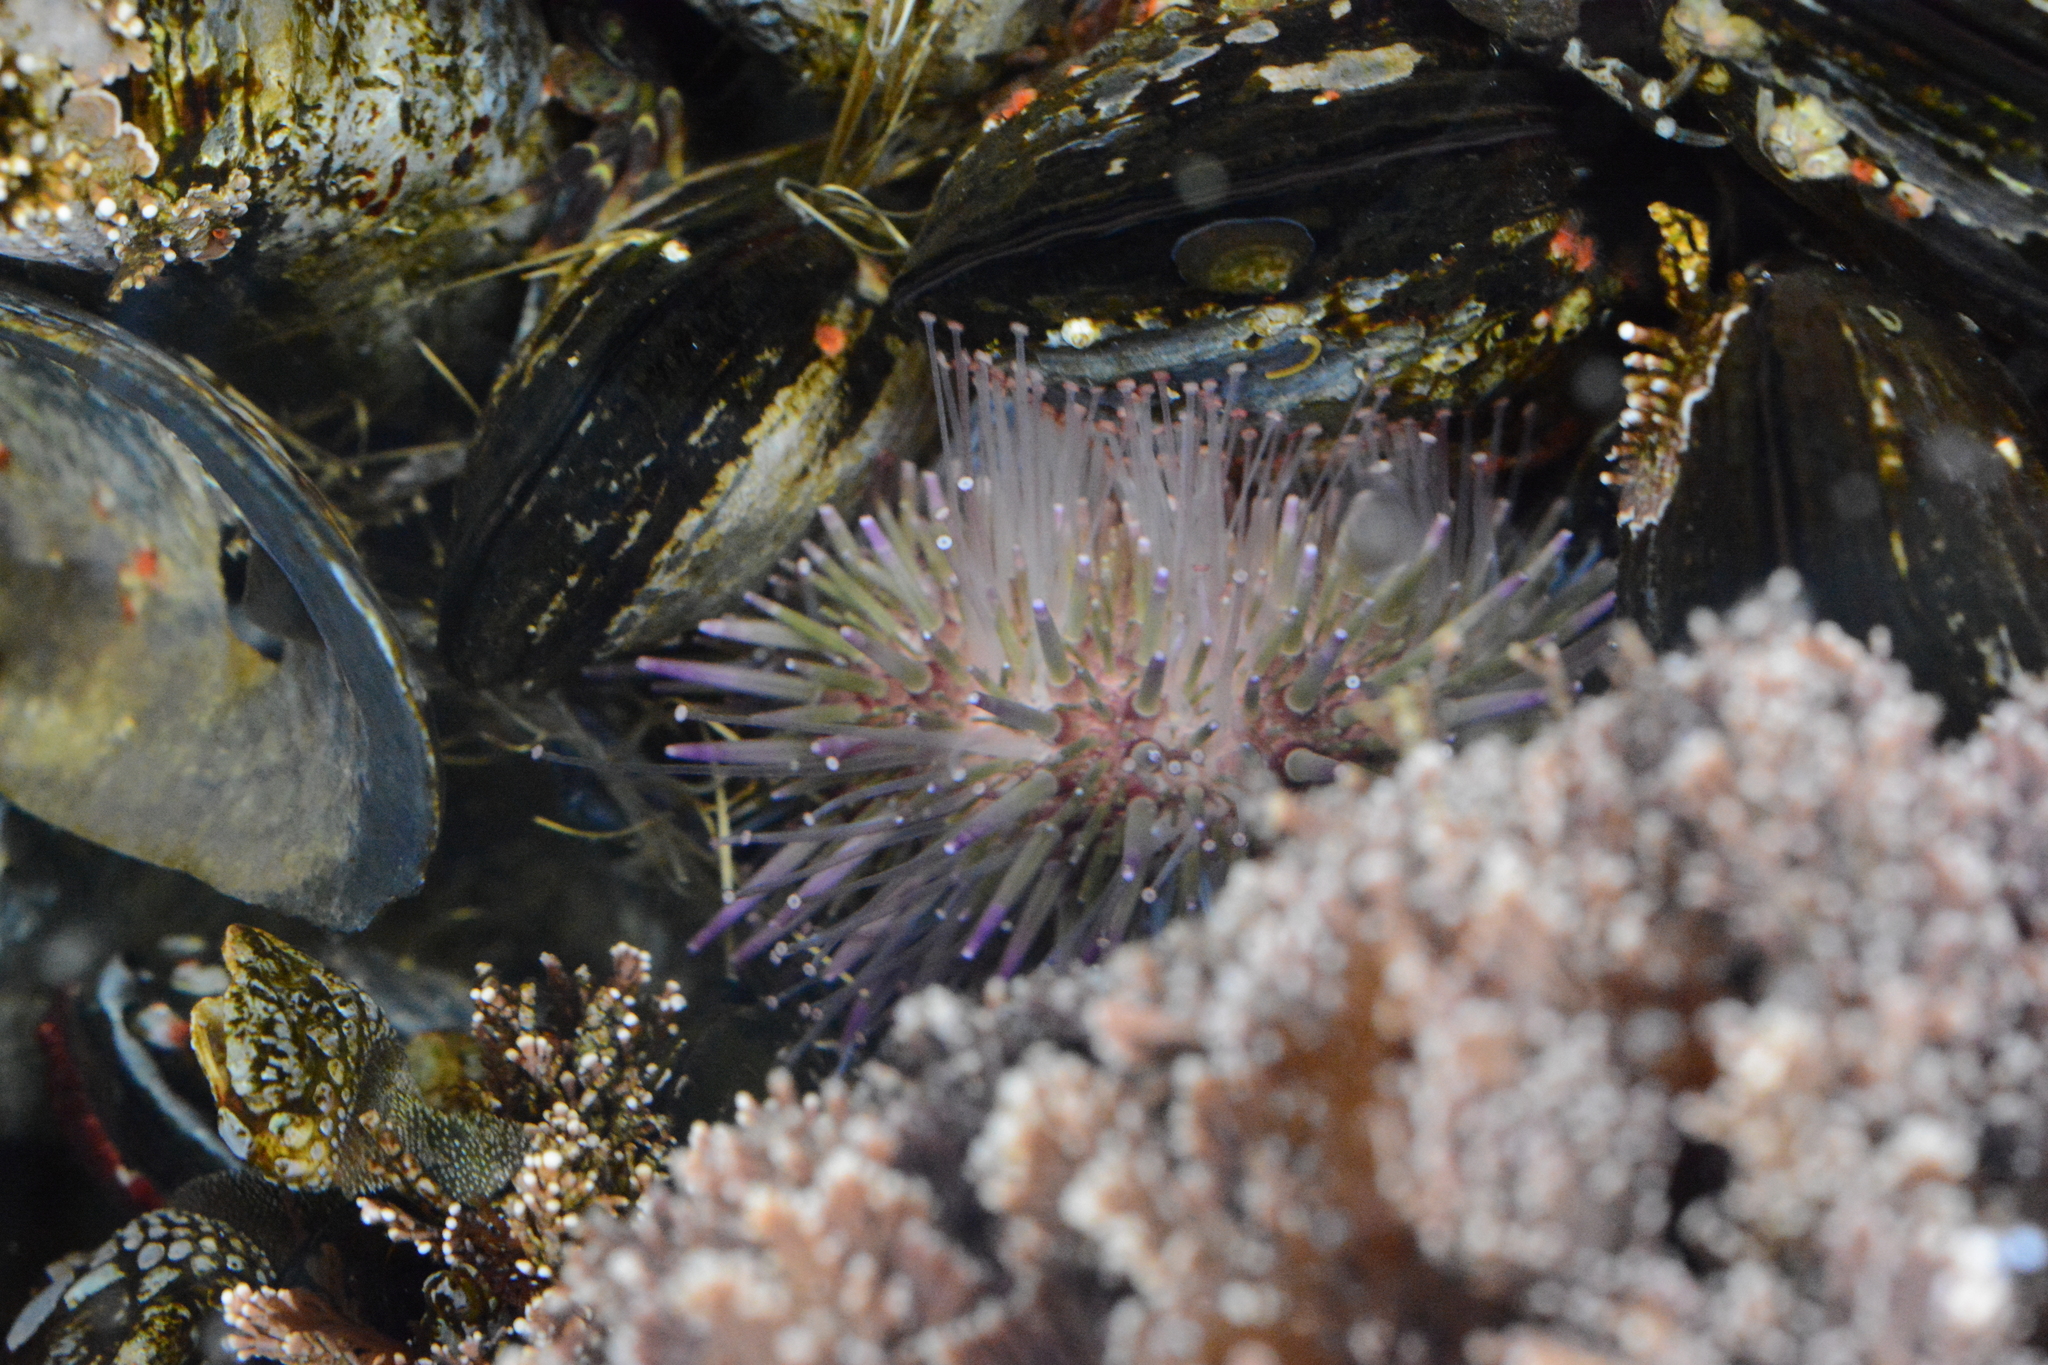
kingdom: Animalia
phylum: Echinodermata
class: Echinoidea
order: Camarodonta
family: Strongylocentrotidae
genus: Strongylocentrotus
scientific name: Strongylocentrotus purpuratus
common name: Purple sea urchin
